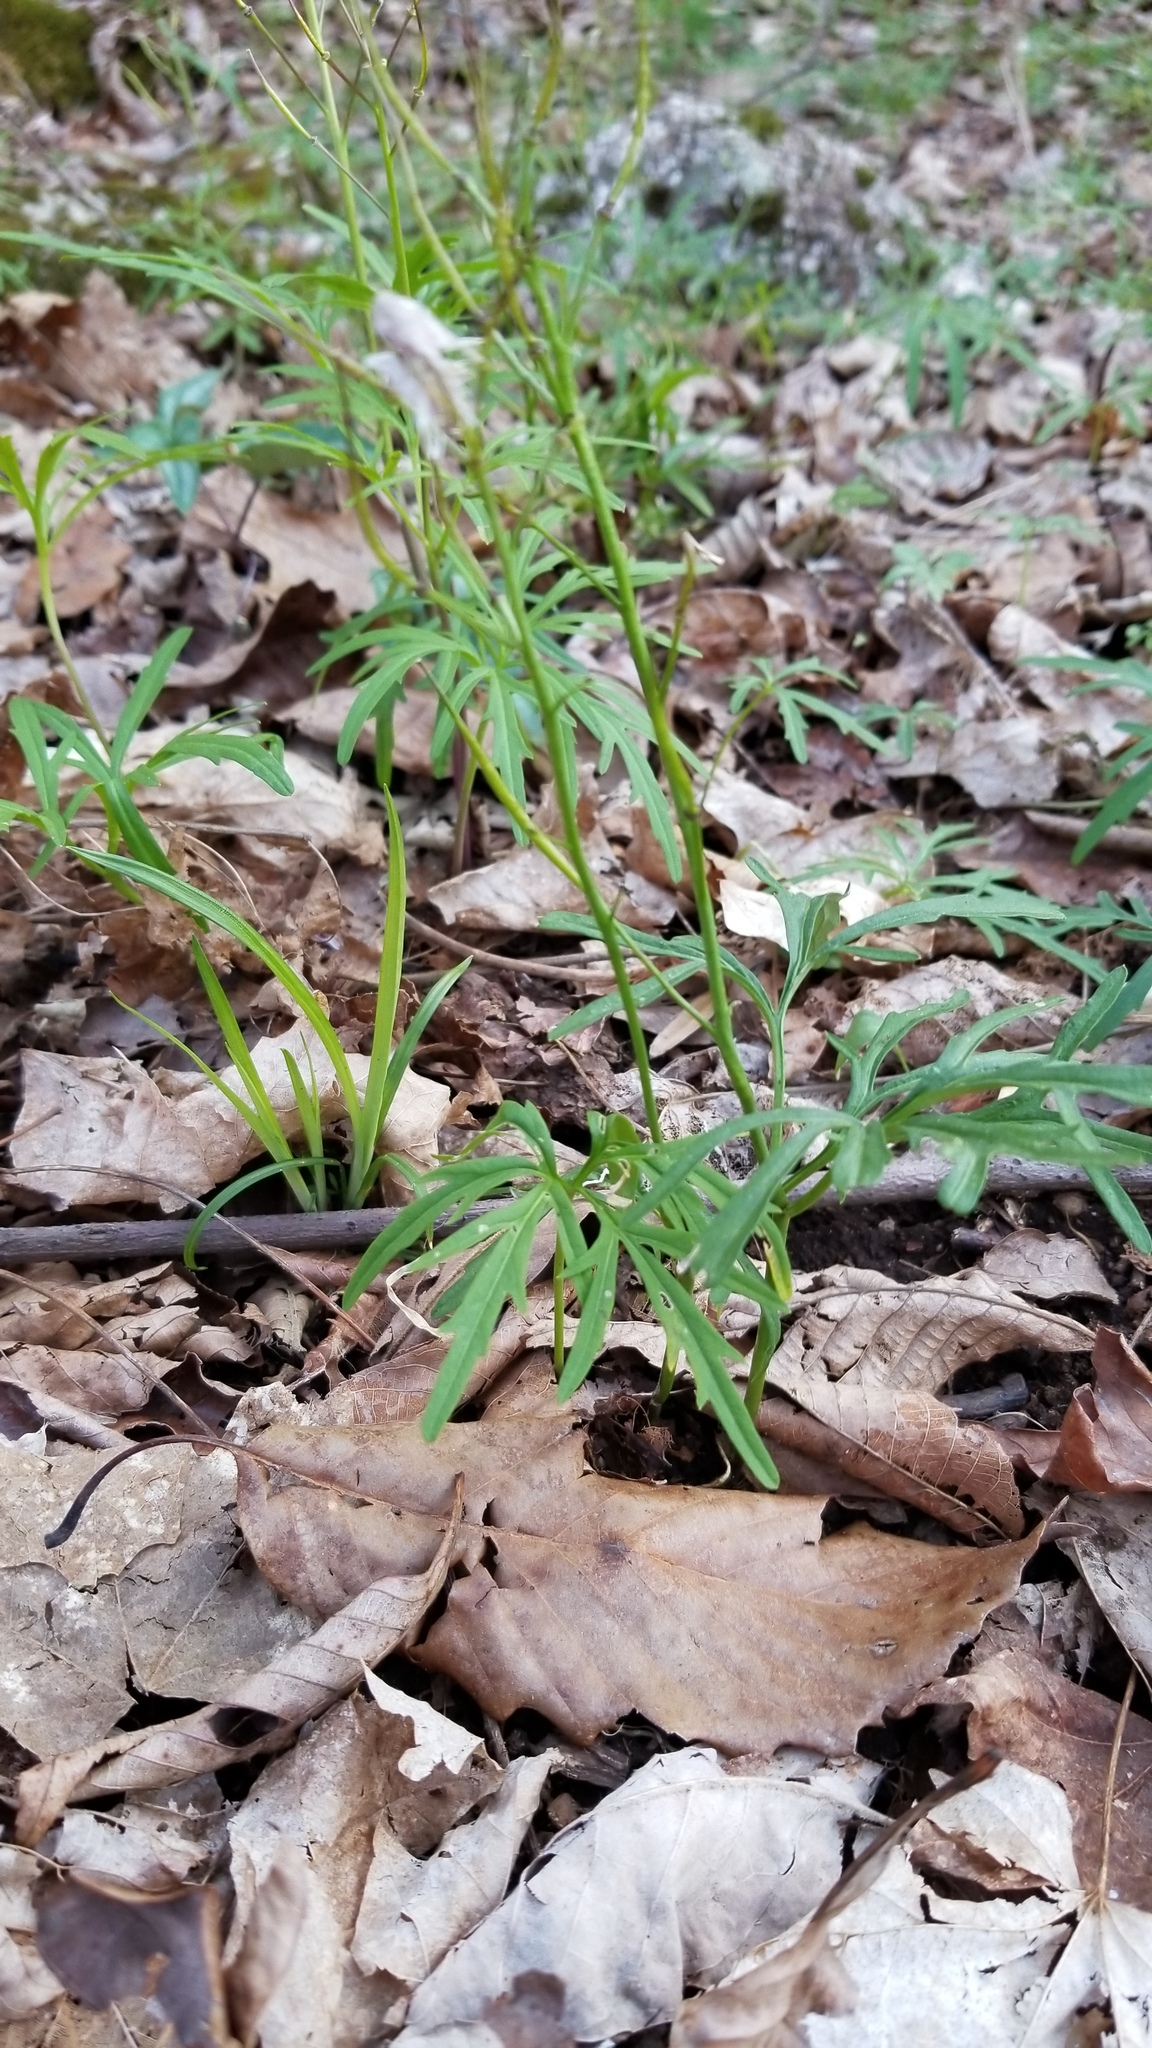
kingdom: Plantae
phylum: Tracheophyta
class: Magnoliopsida
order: Brassicales
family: Brassicaceae
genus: Cardamine
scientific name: Cardamine concatenata
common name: Cut-leaf toothcup
